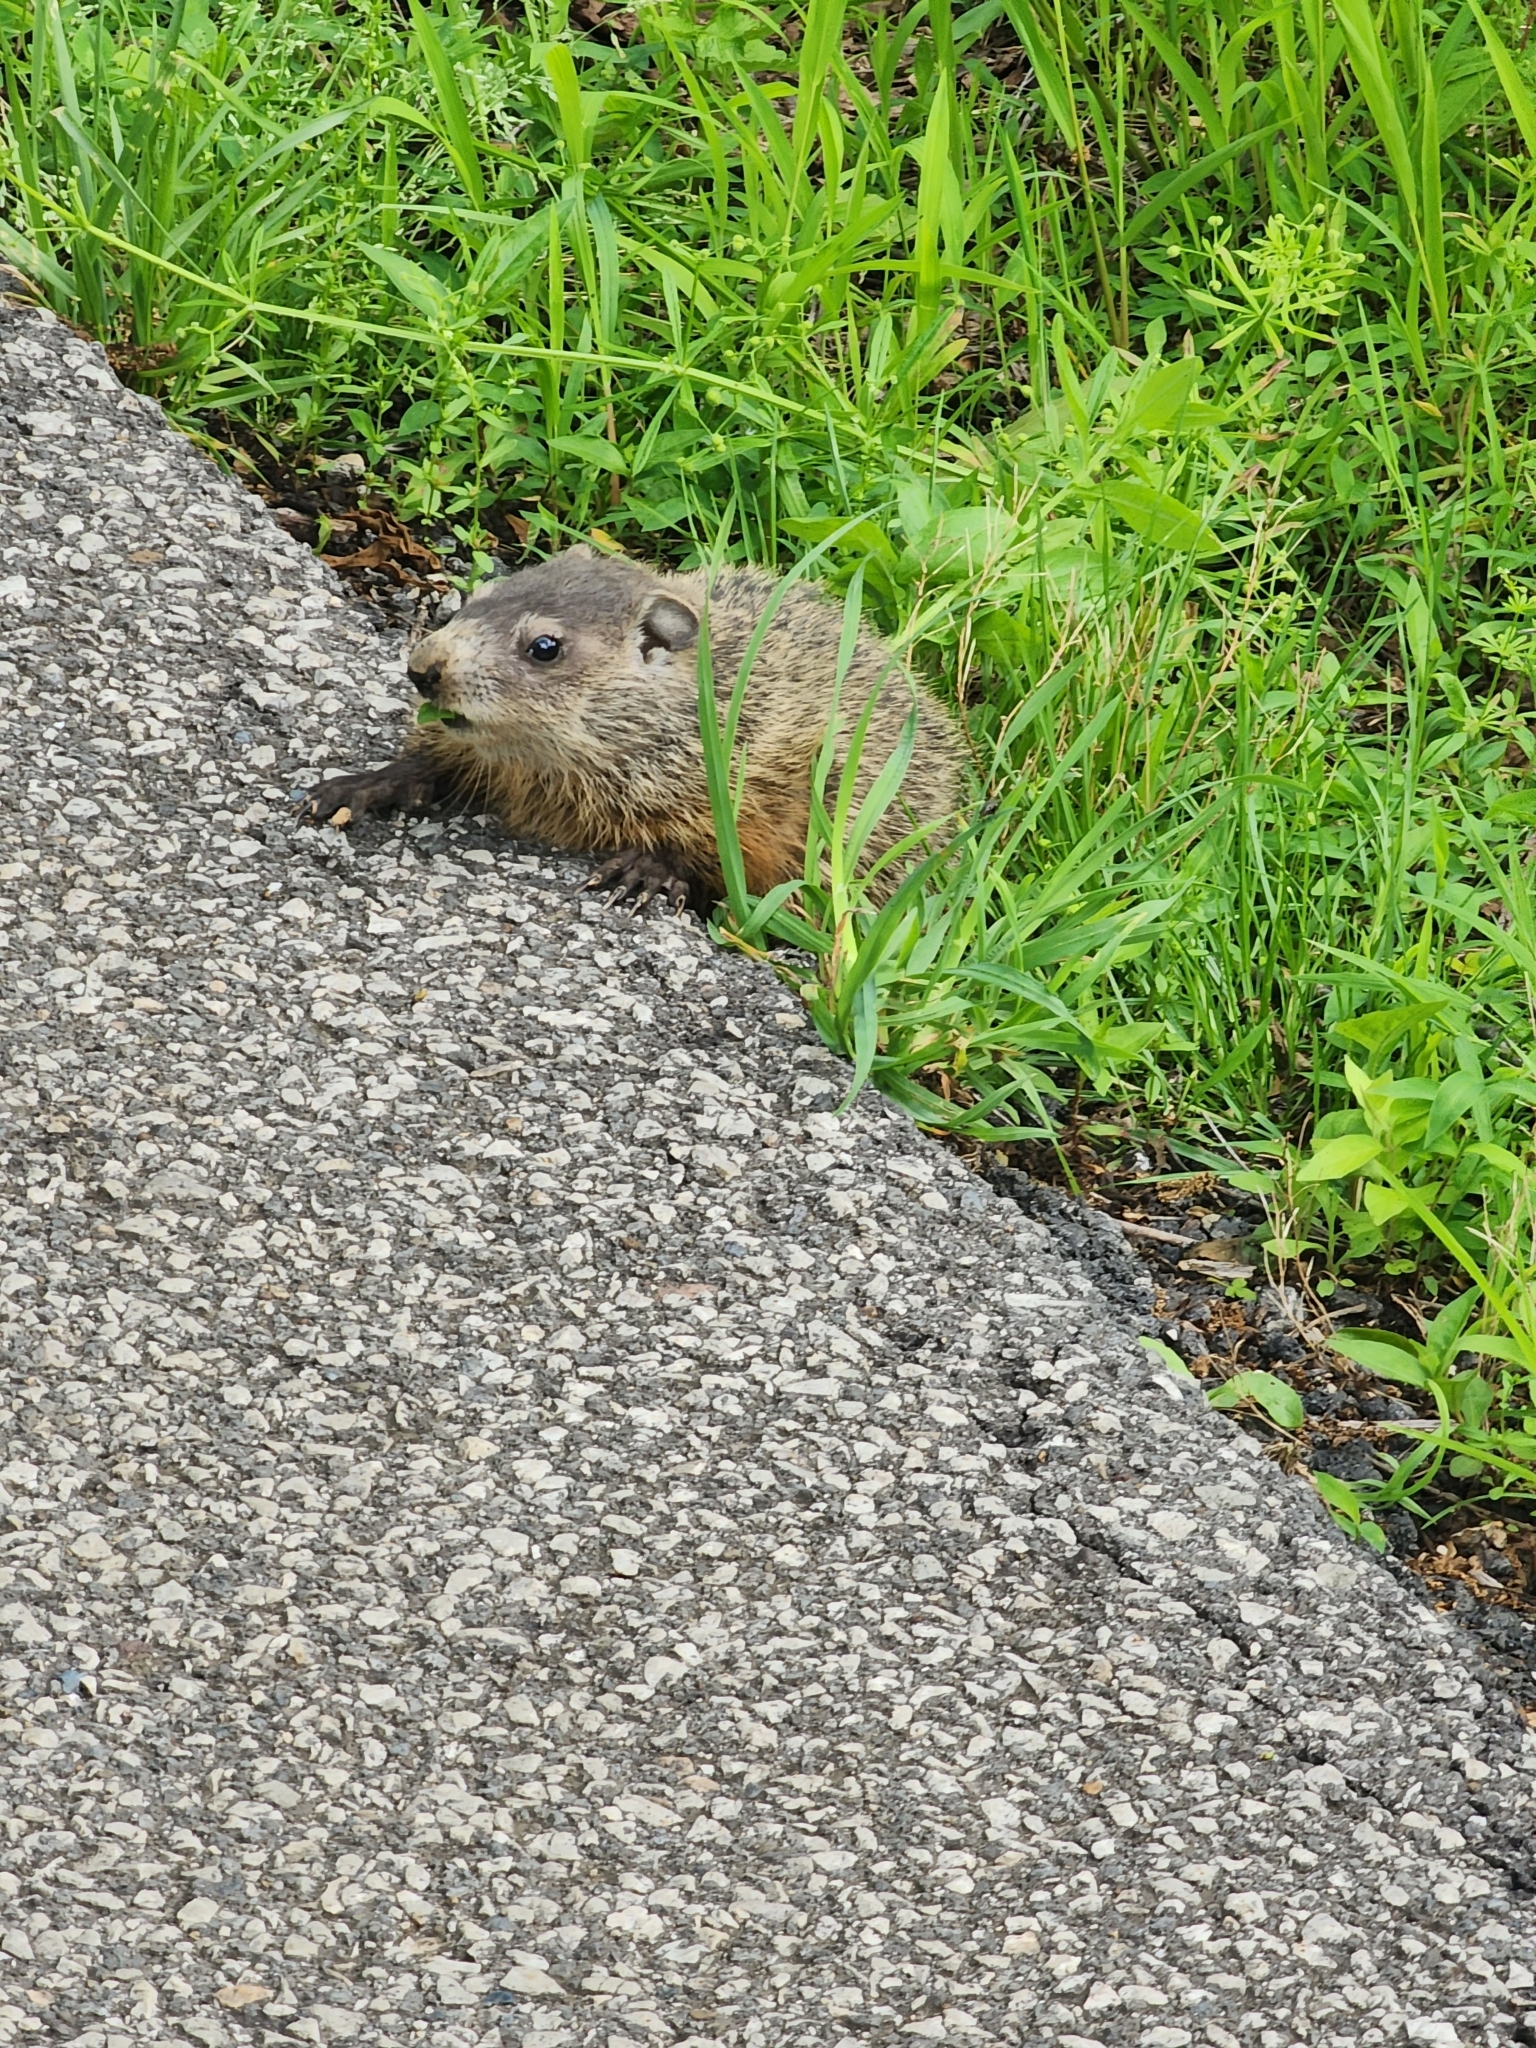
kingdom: Animalia
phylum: Chordata
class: Mammalia
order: Rodentia
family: Sciuridae
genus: Marmota
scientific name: Marmota monax
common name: Groundhog
